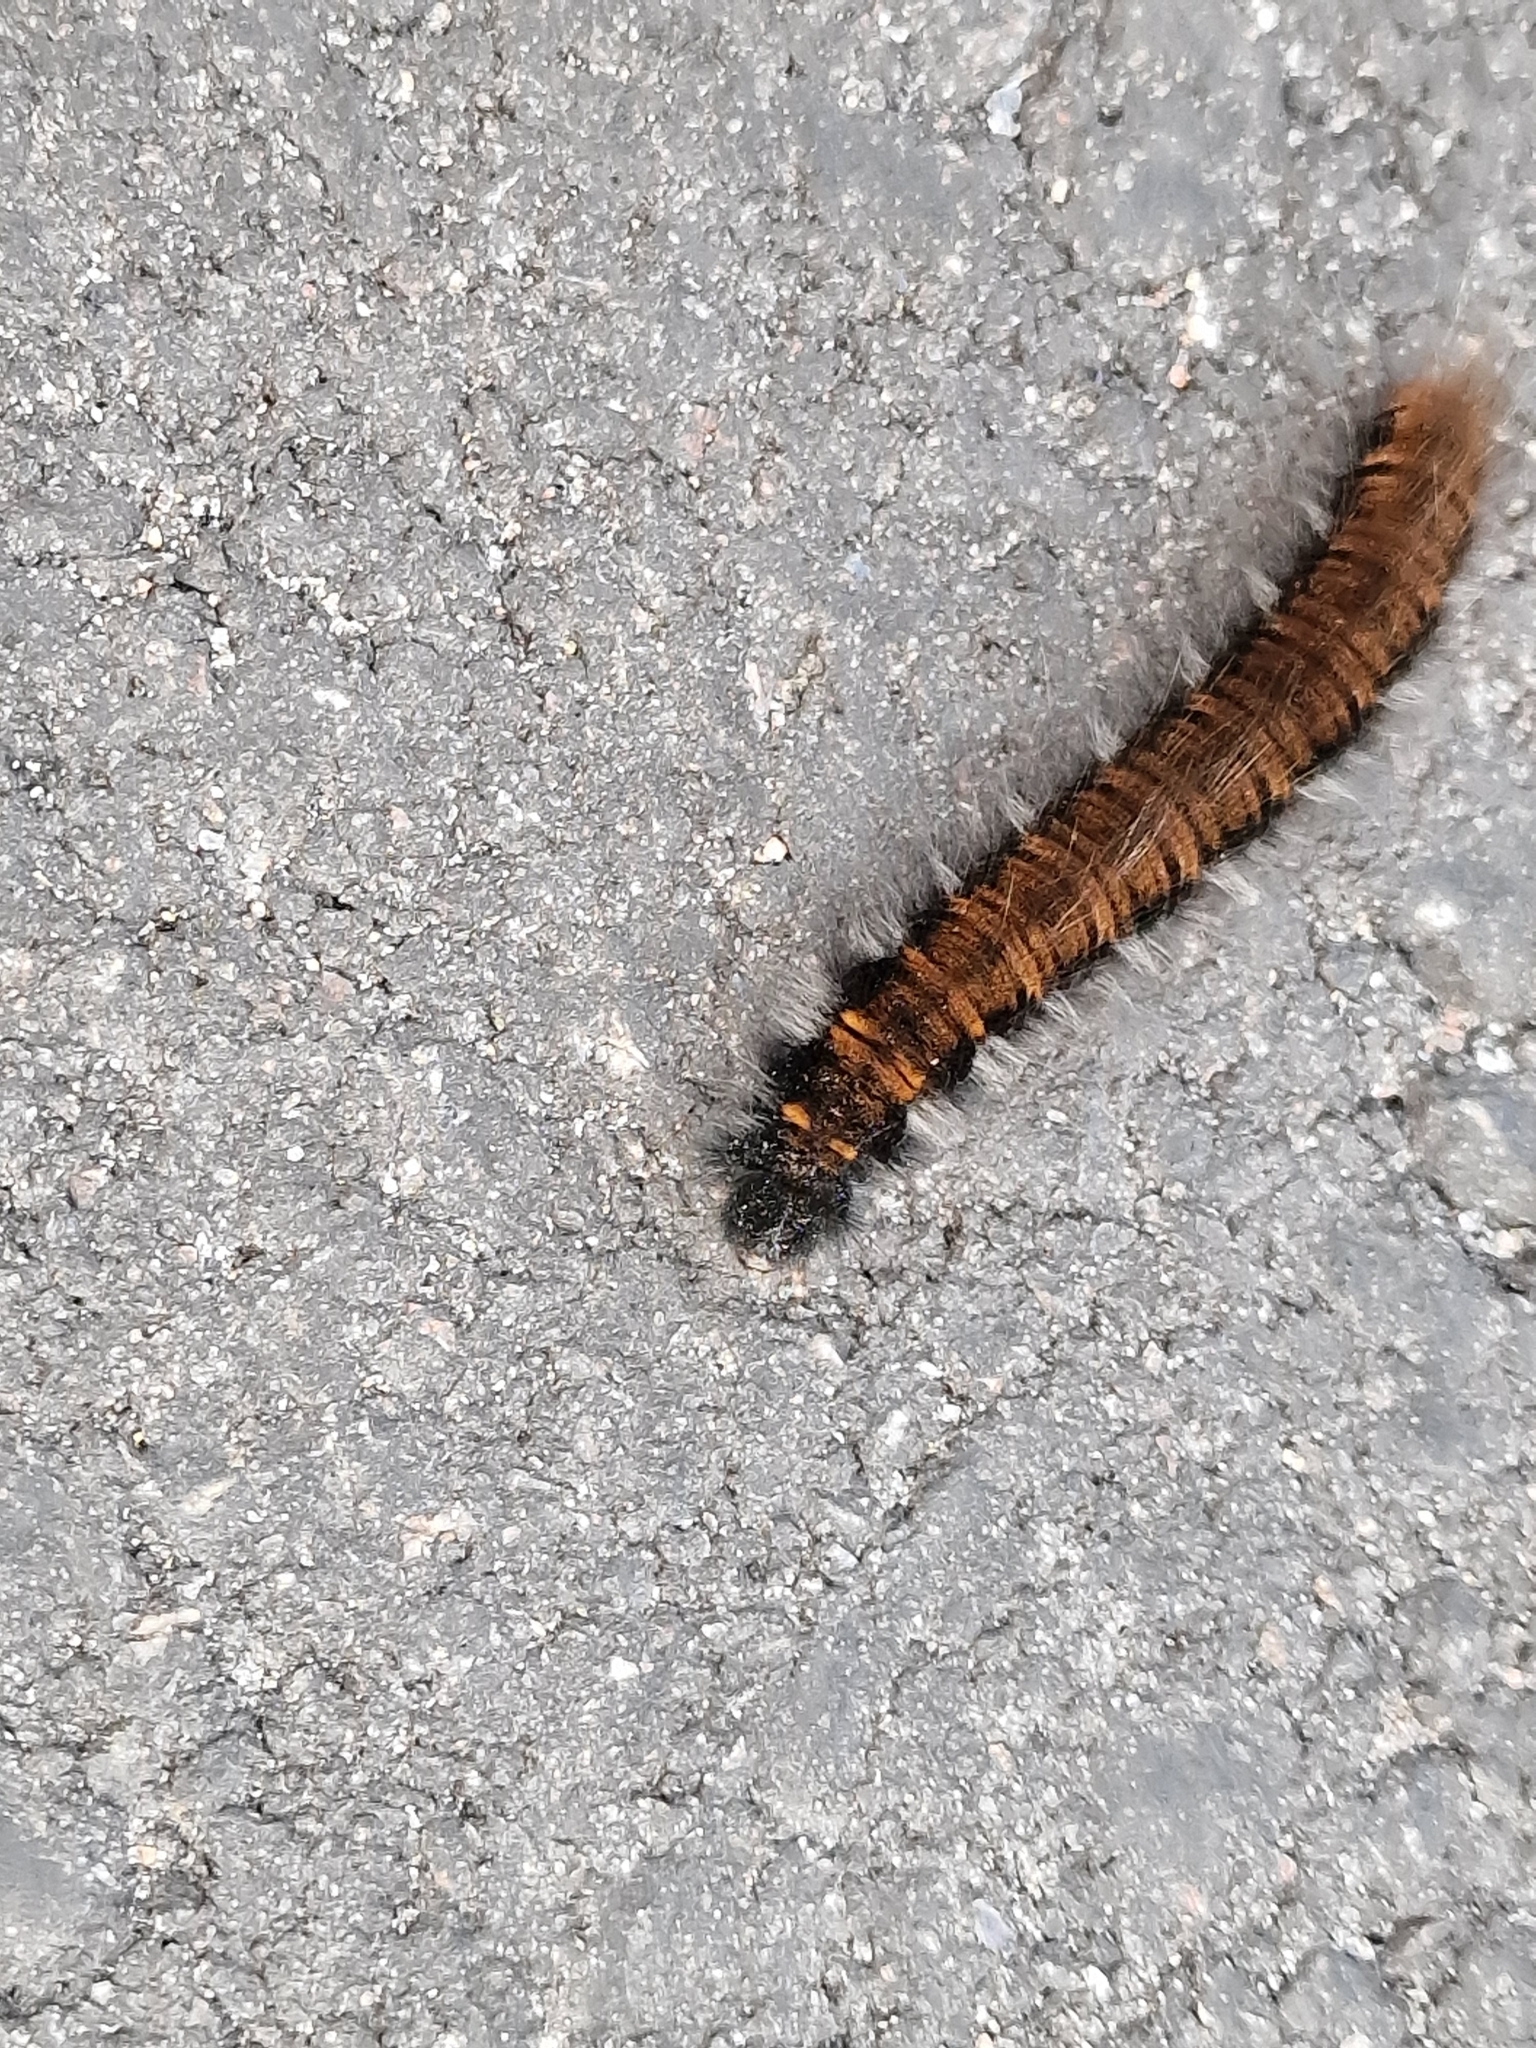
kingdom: Animalia
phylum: Arthropoda
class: Insecta
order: Lepidoptera
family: Lasiocampidae
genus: Macrothylacia
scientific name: Macrothylacia rubi
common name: Fox moth
